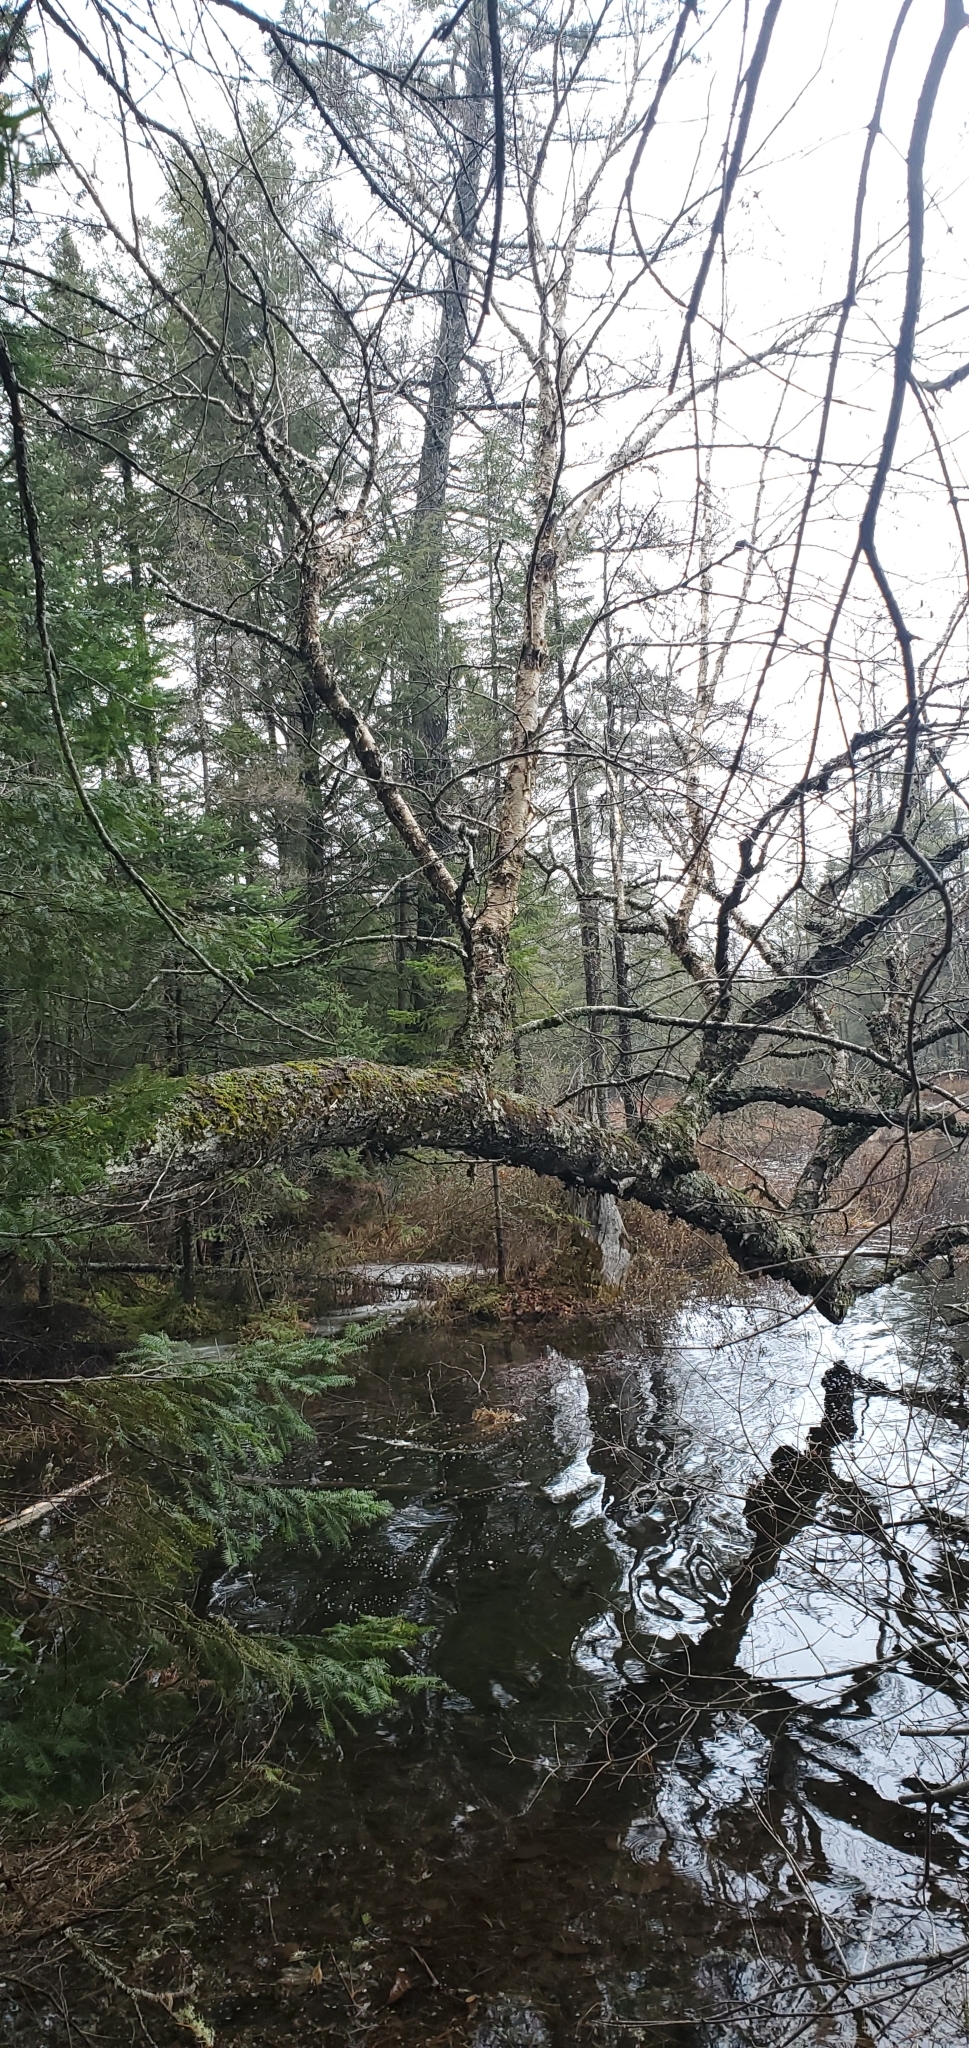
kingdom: Plantae
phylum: Tracheophyta
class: Magnoliopsida
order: Fagales
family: Betulaceae
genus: Betula
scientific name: Betula alleghaniensis
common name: Yellow birch
